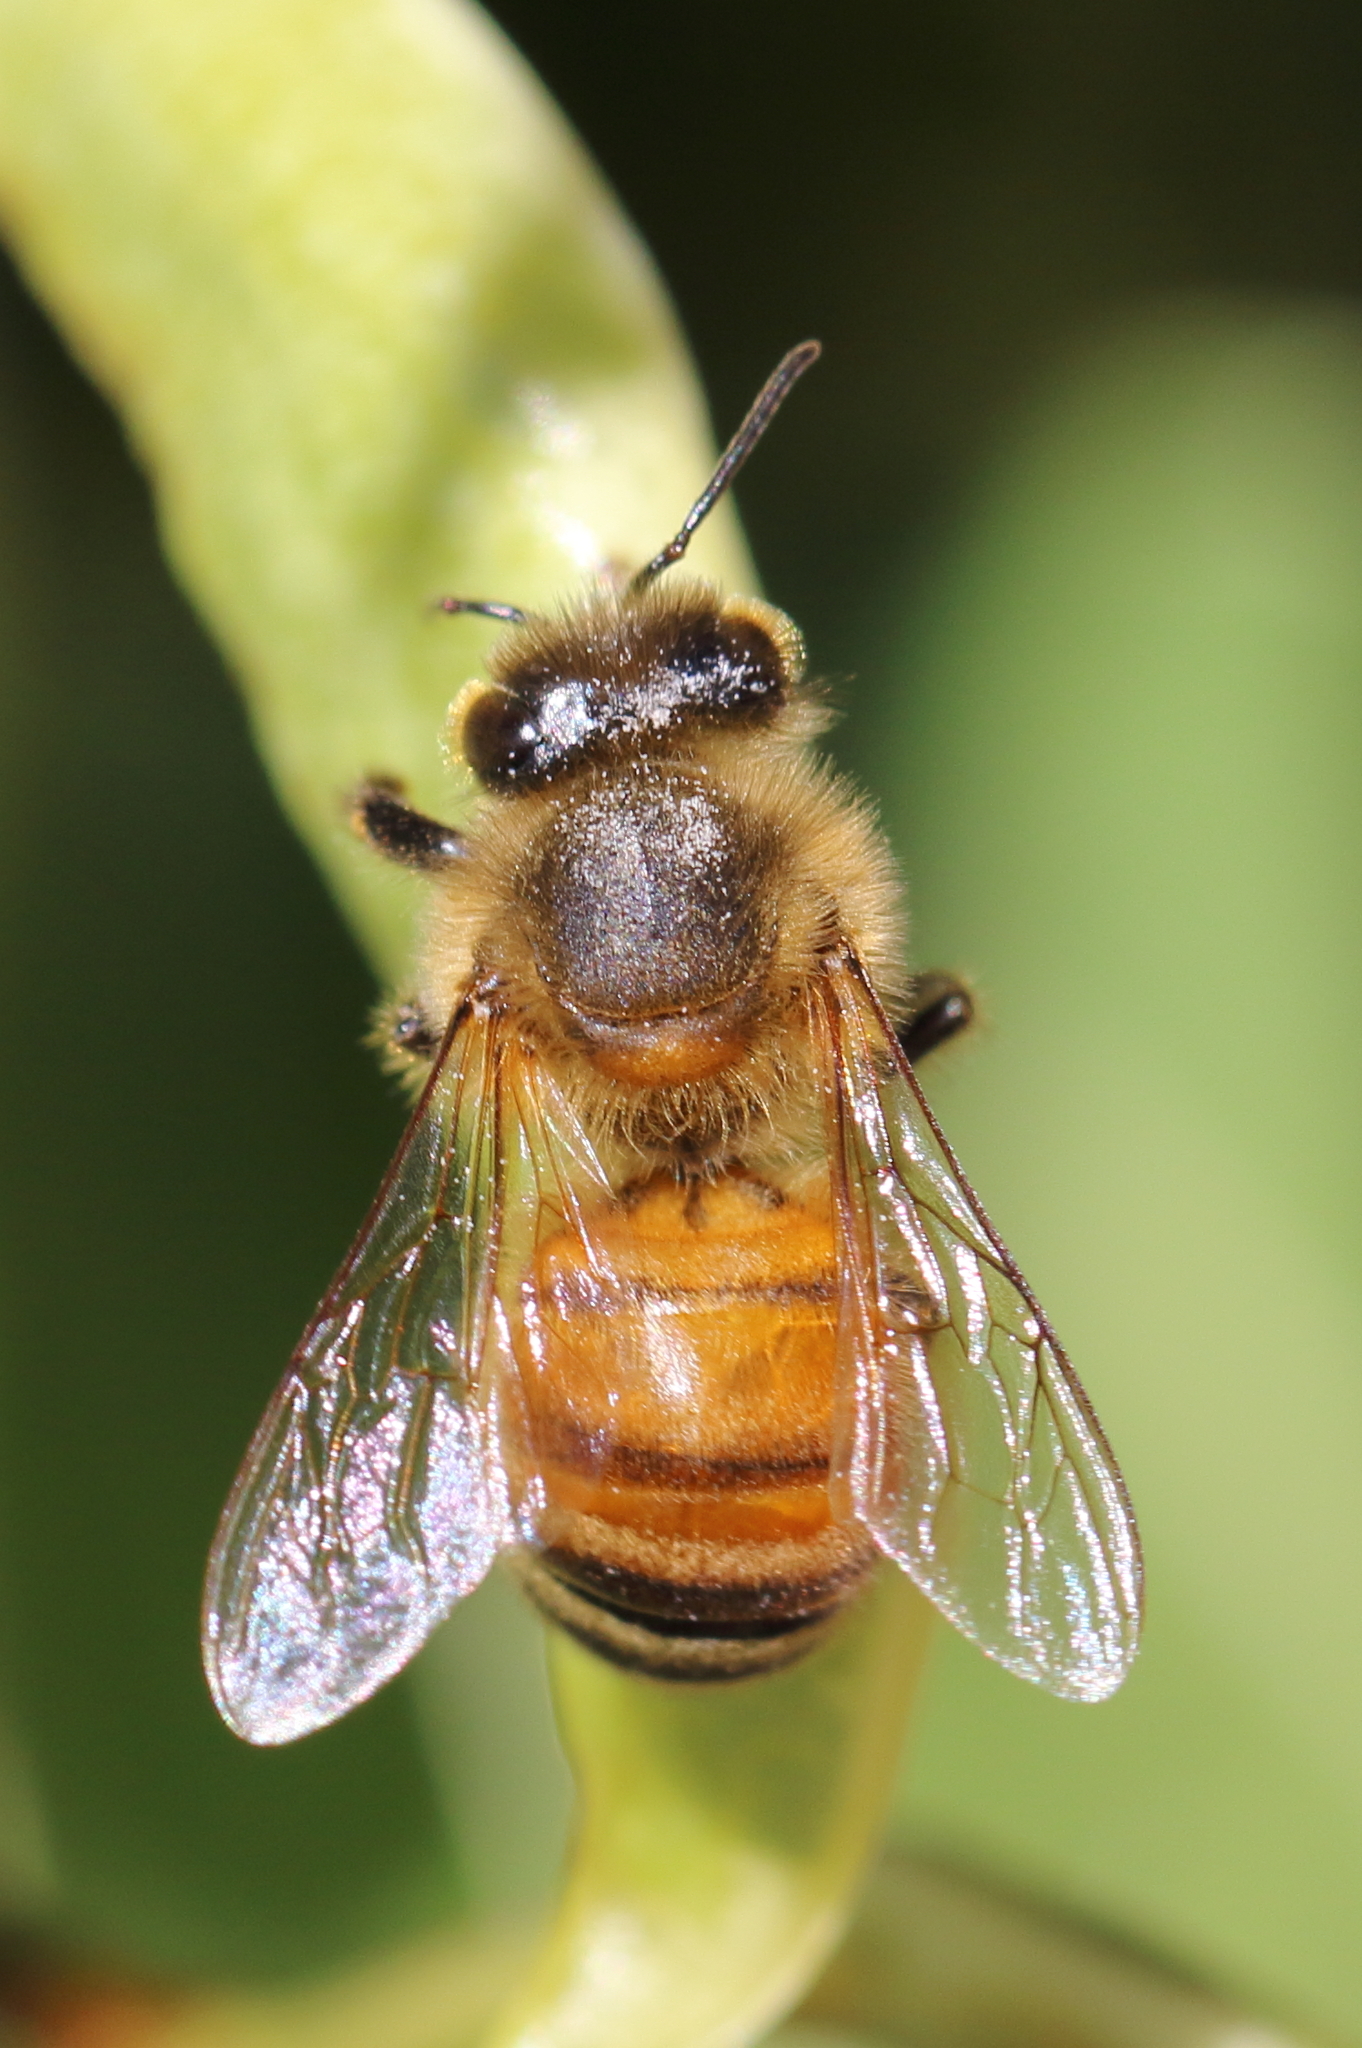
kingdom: Animalia
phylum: Arthropoda
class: Insecta
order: Hymenoptera
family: Apidae
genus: Apis
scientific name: Apis mellifera
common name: Honey bee
